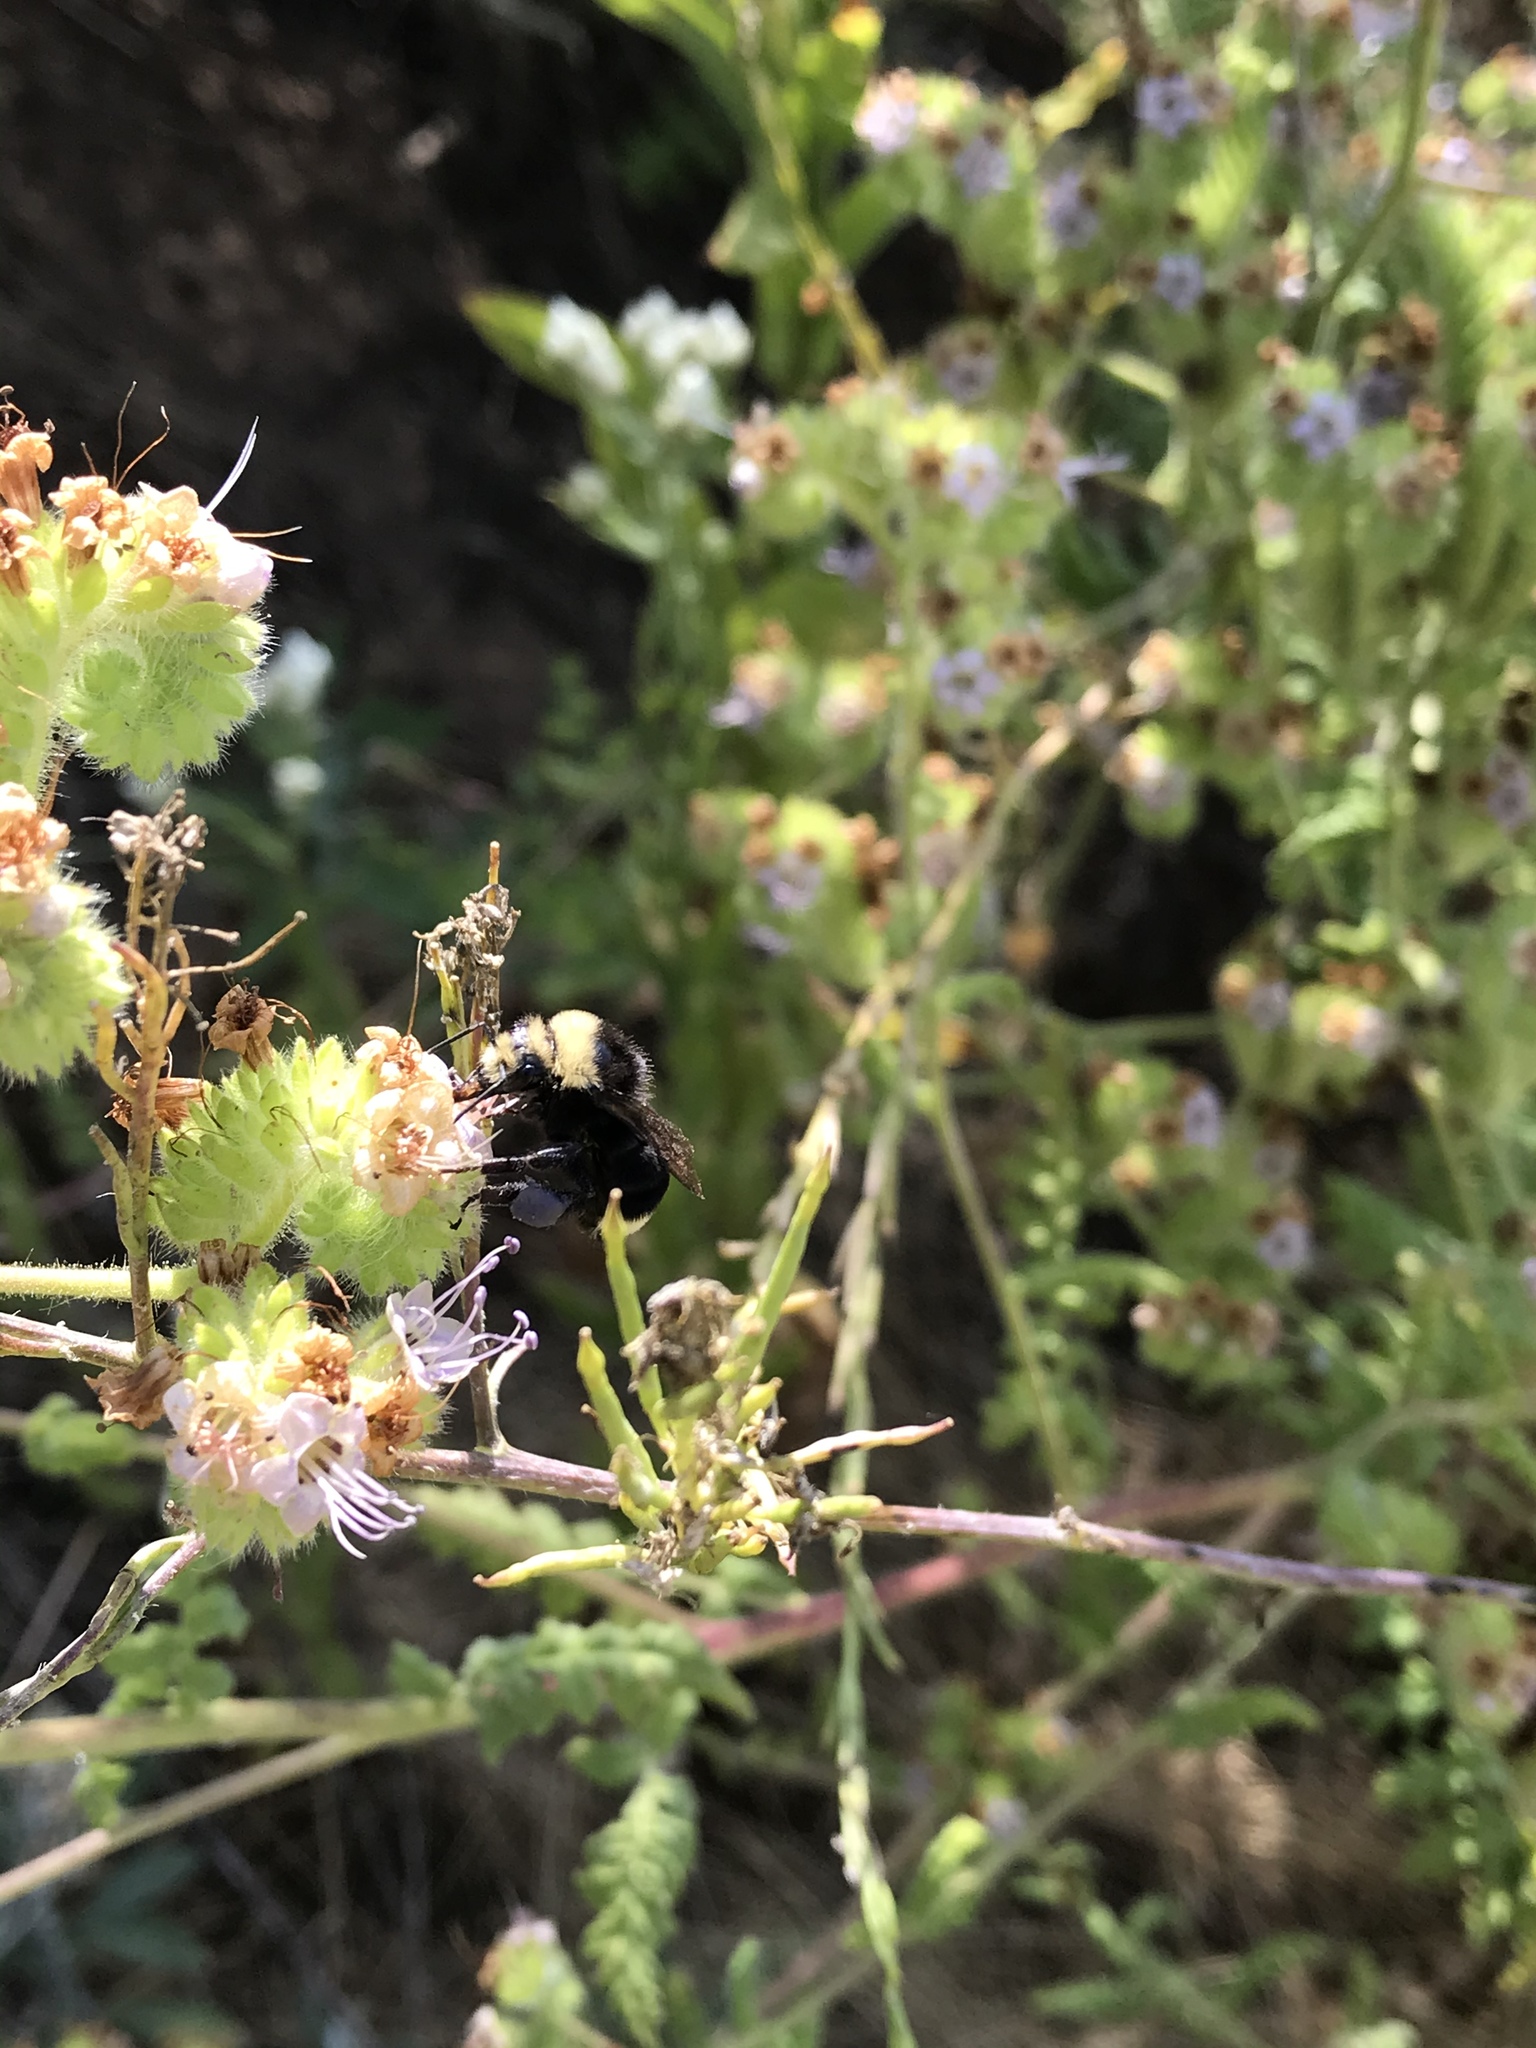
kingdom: Animalia
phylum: Arthropoda
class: Insecta
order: Hymenoptera
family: Apidae
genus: Bombus
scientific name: Bombus vosnesenskii
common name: Vosnesensky bumble bee
